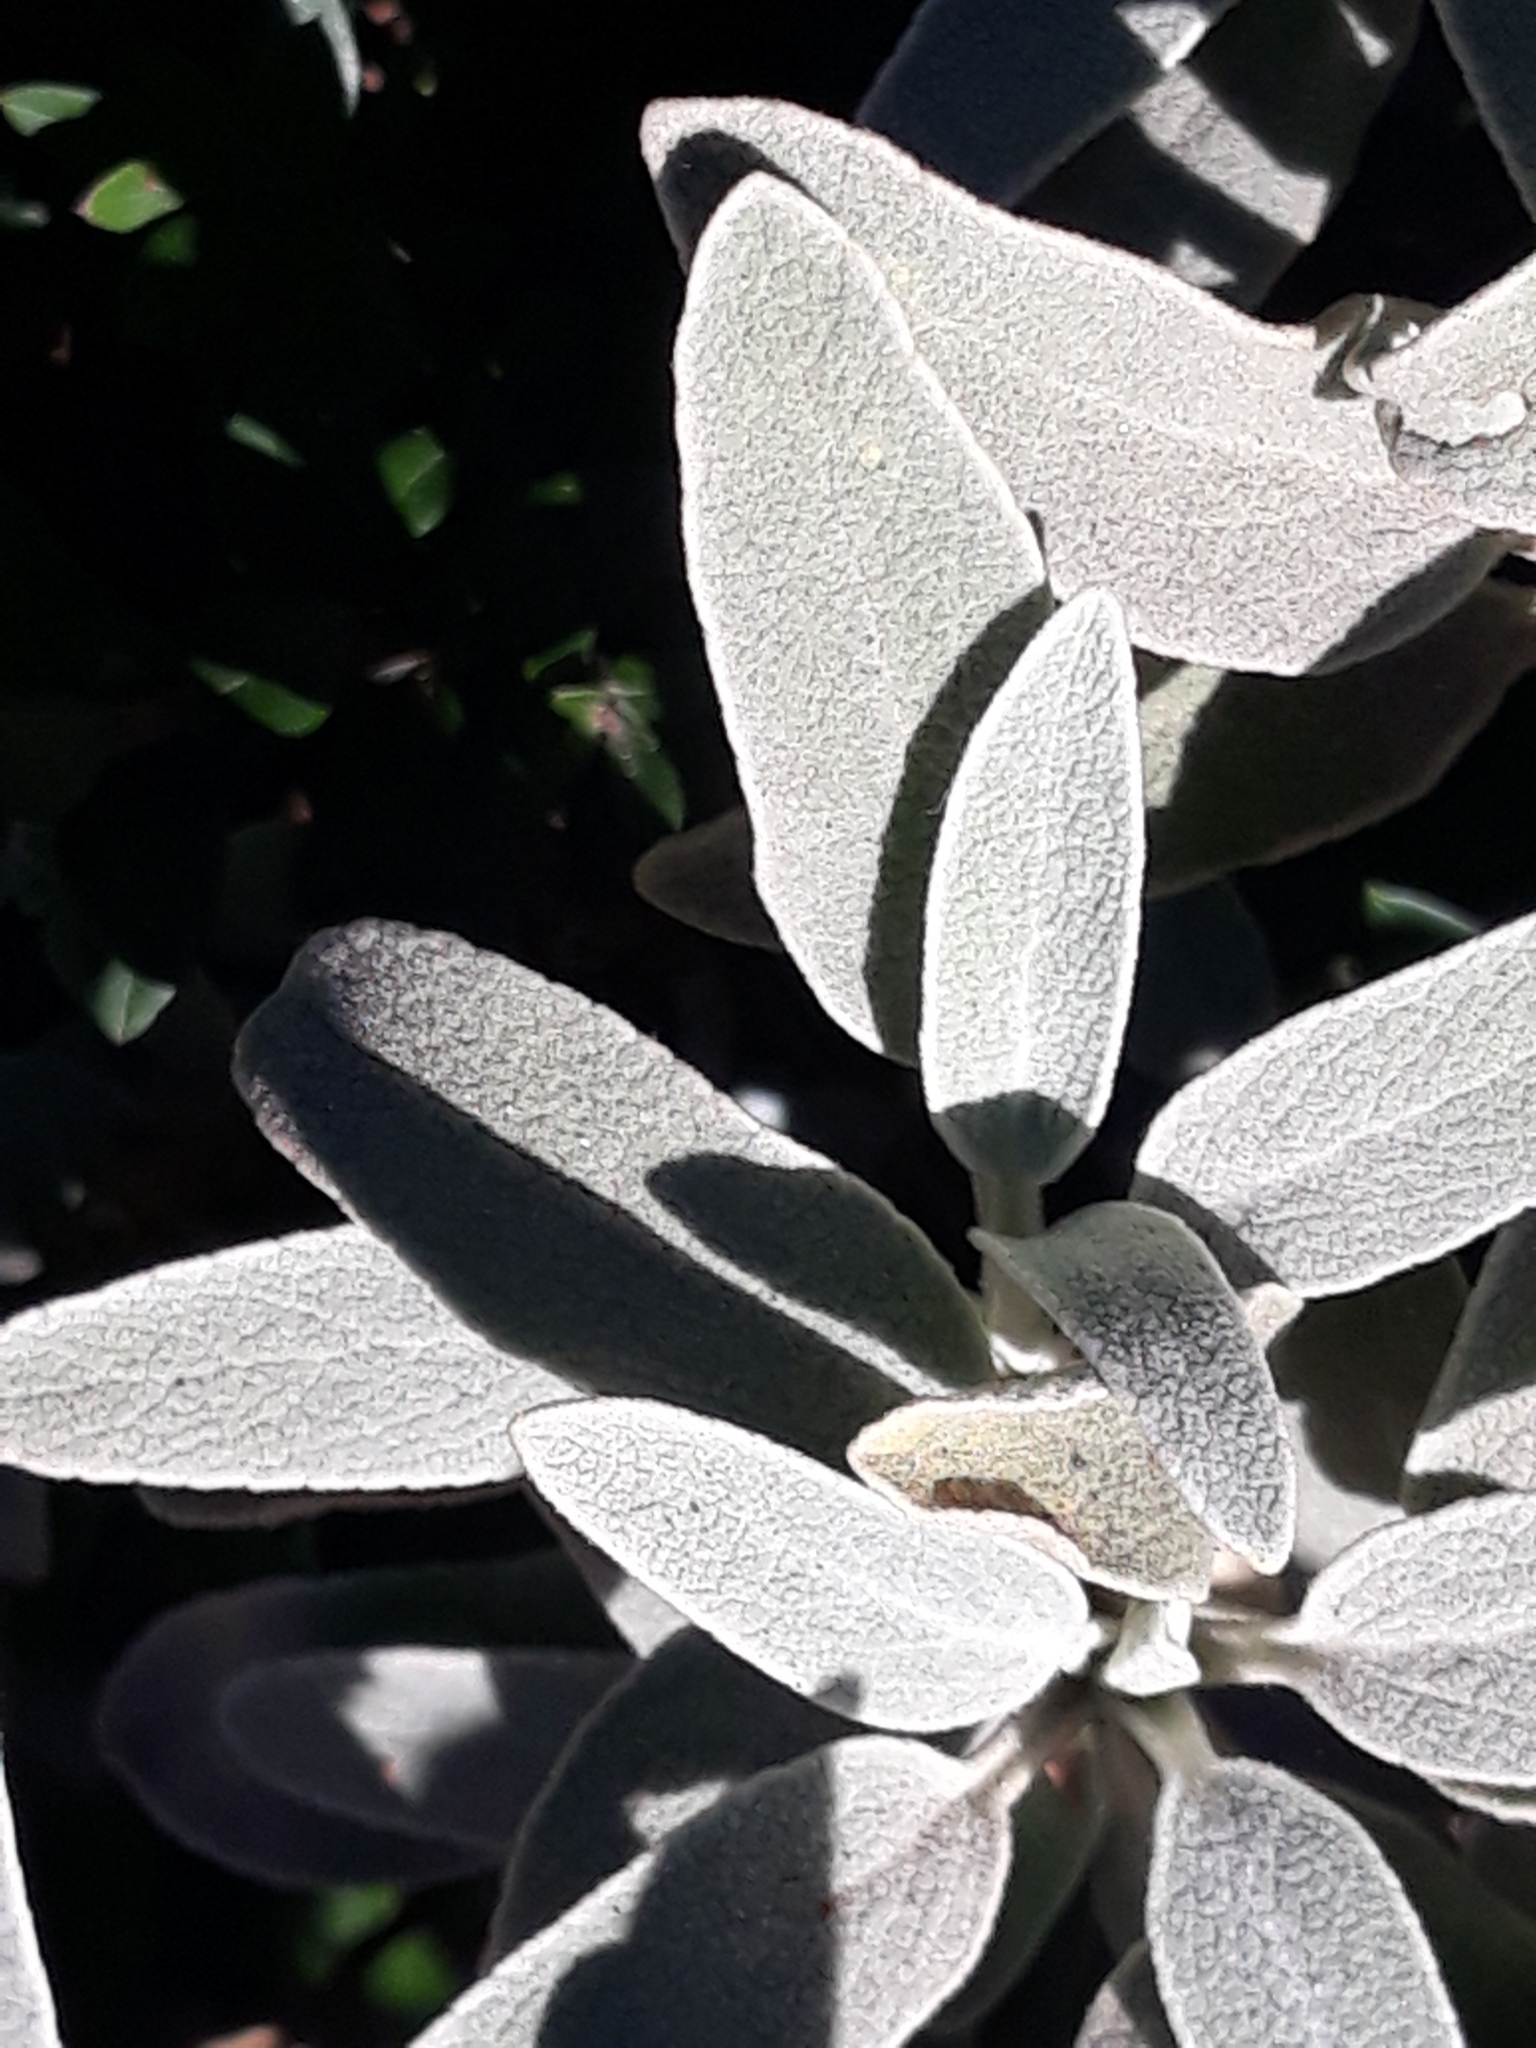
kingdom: Plantae
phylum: Tracheophyta
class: Magnoliopsida
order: Lamiales
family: Lamiaceae
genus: Stachys
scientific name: Stachys byzantina
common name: Lamb's-ear
